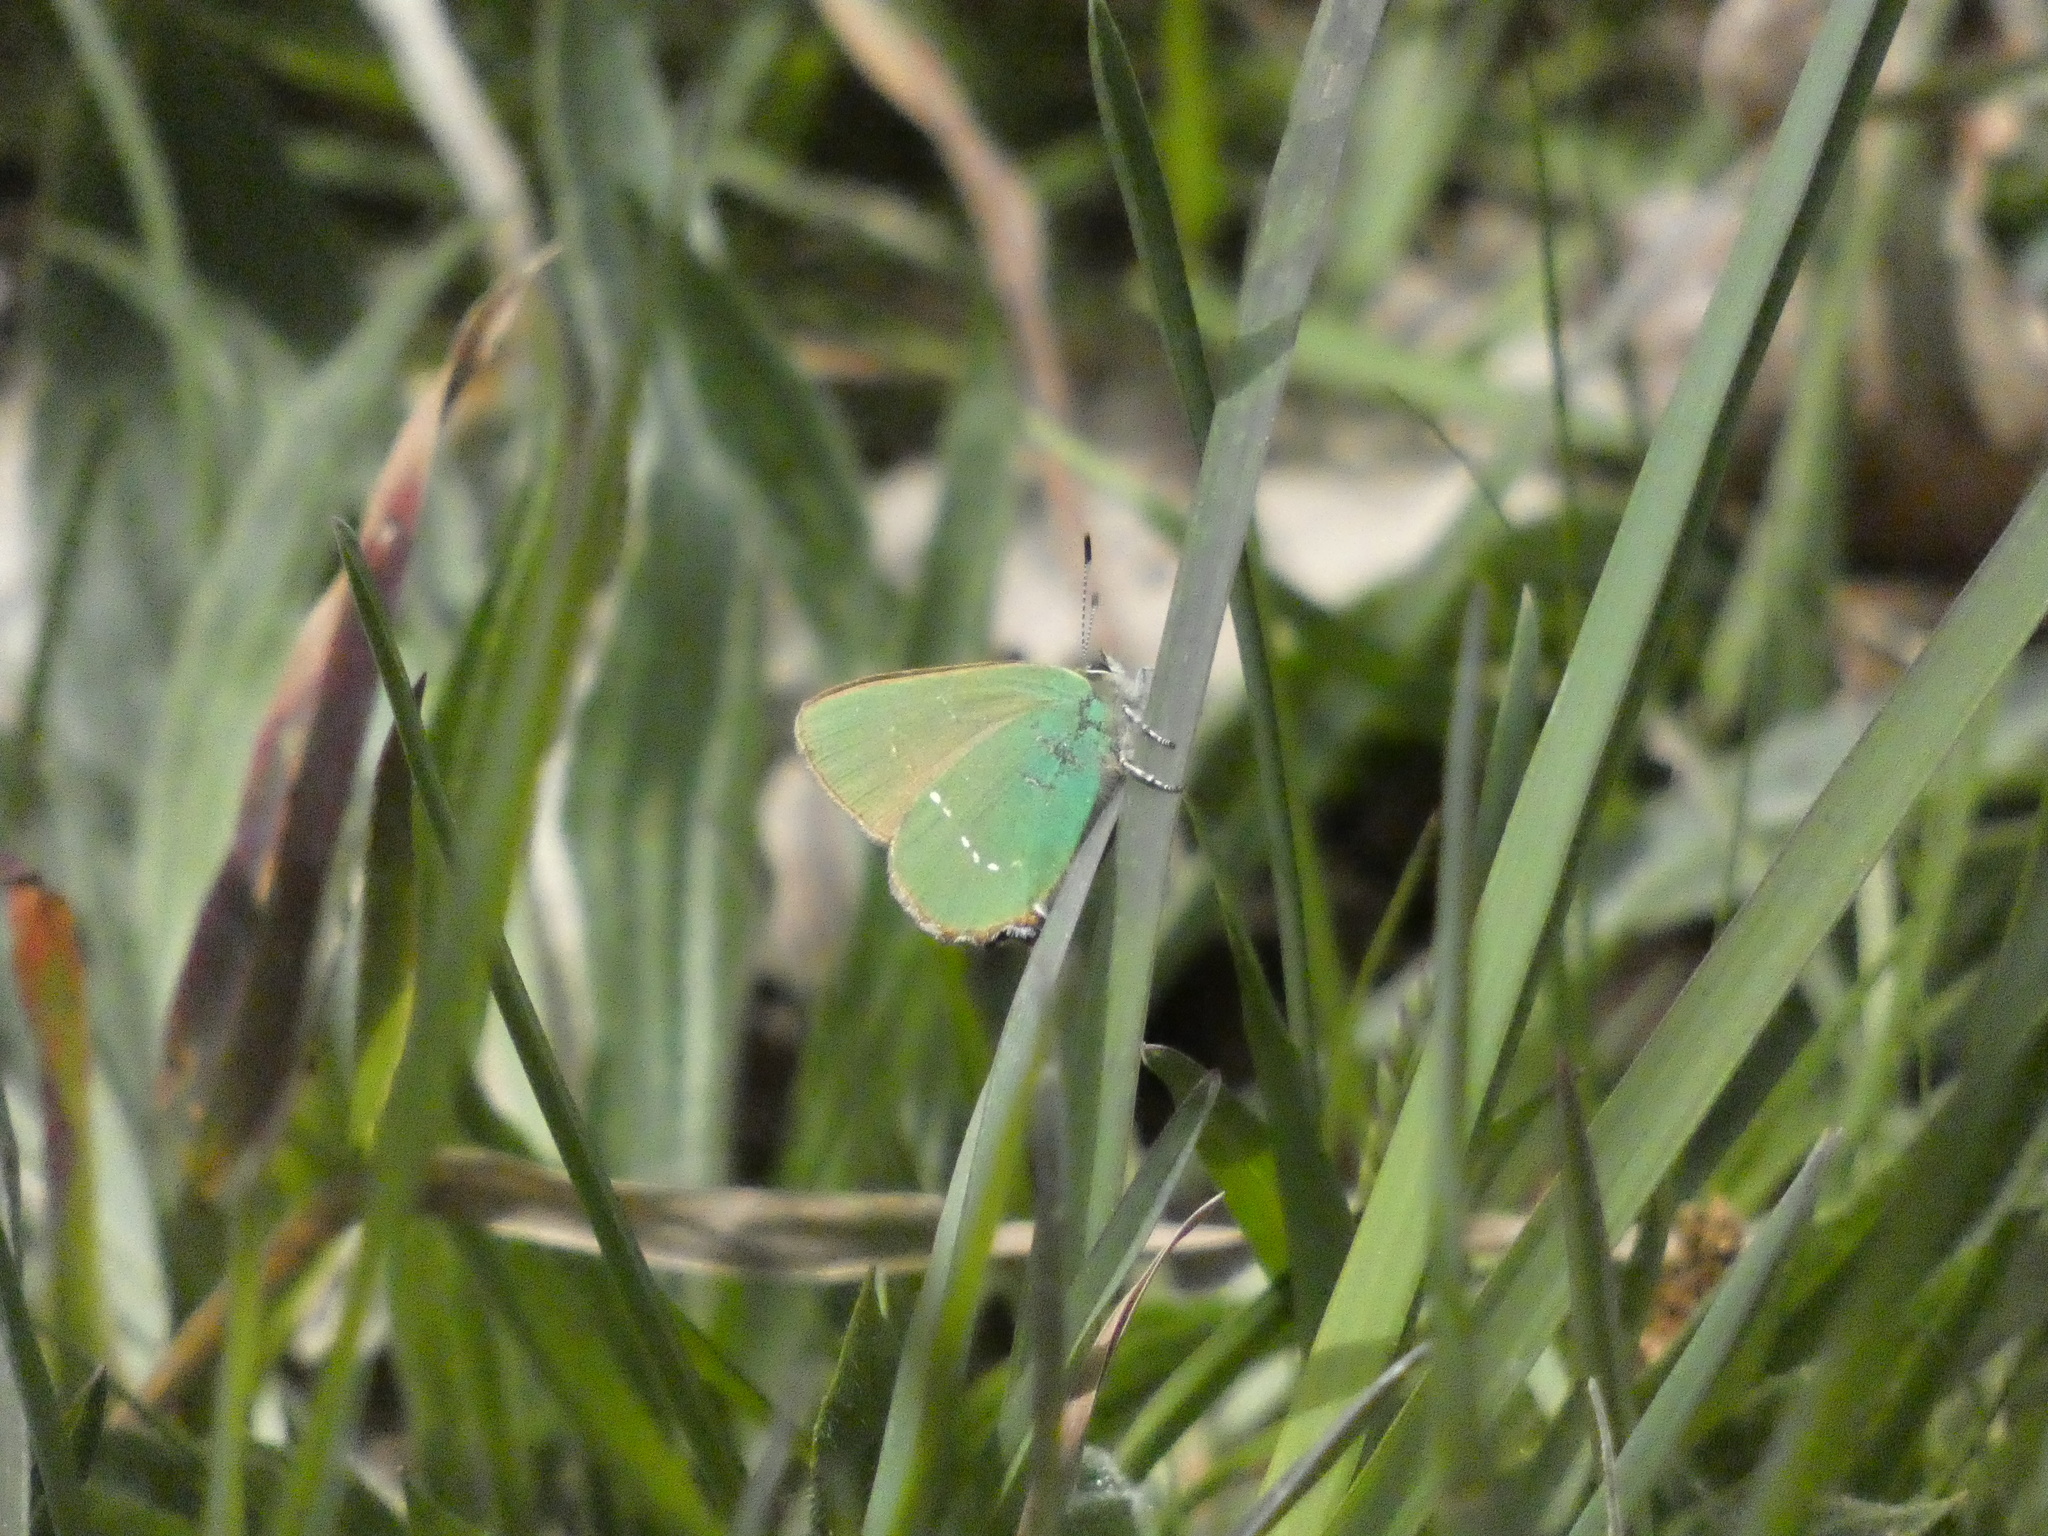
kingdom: Animalia
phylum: Arthropoda
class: Insecta
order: Lepidoptera
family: Lycaenidae
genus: Callophrys
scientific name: Callophrys rubi
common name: Green hairstreak
